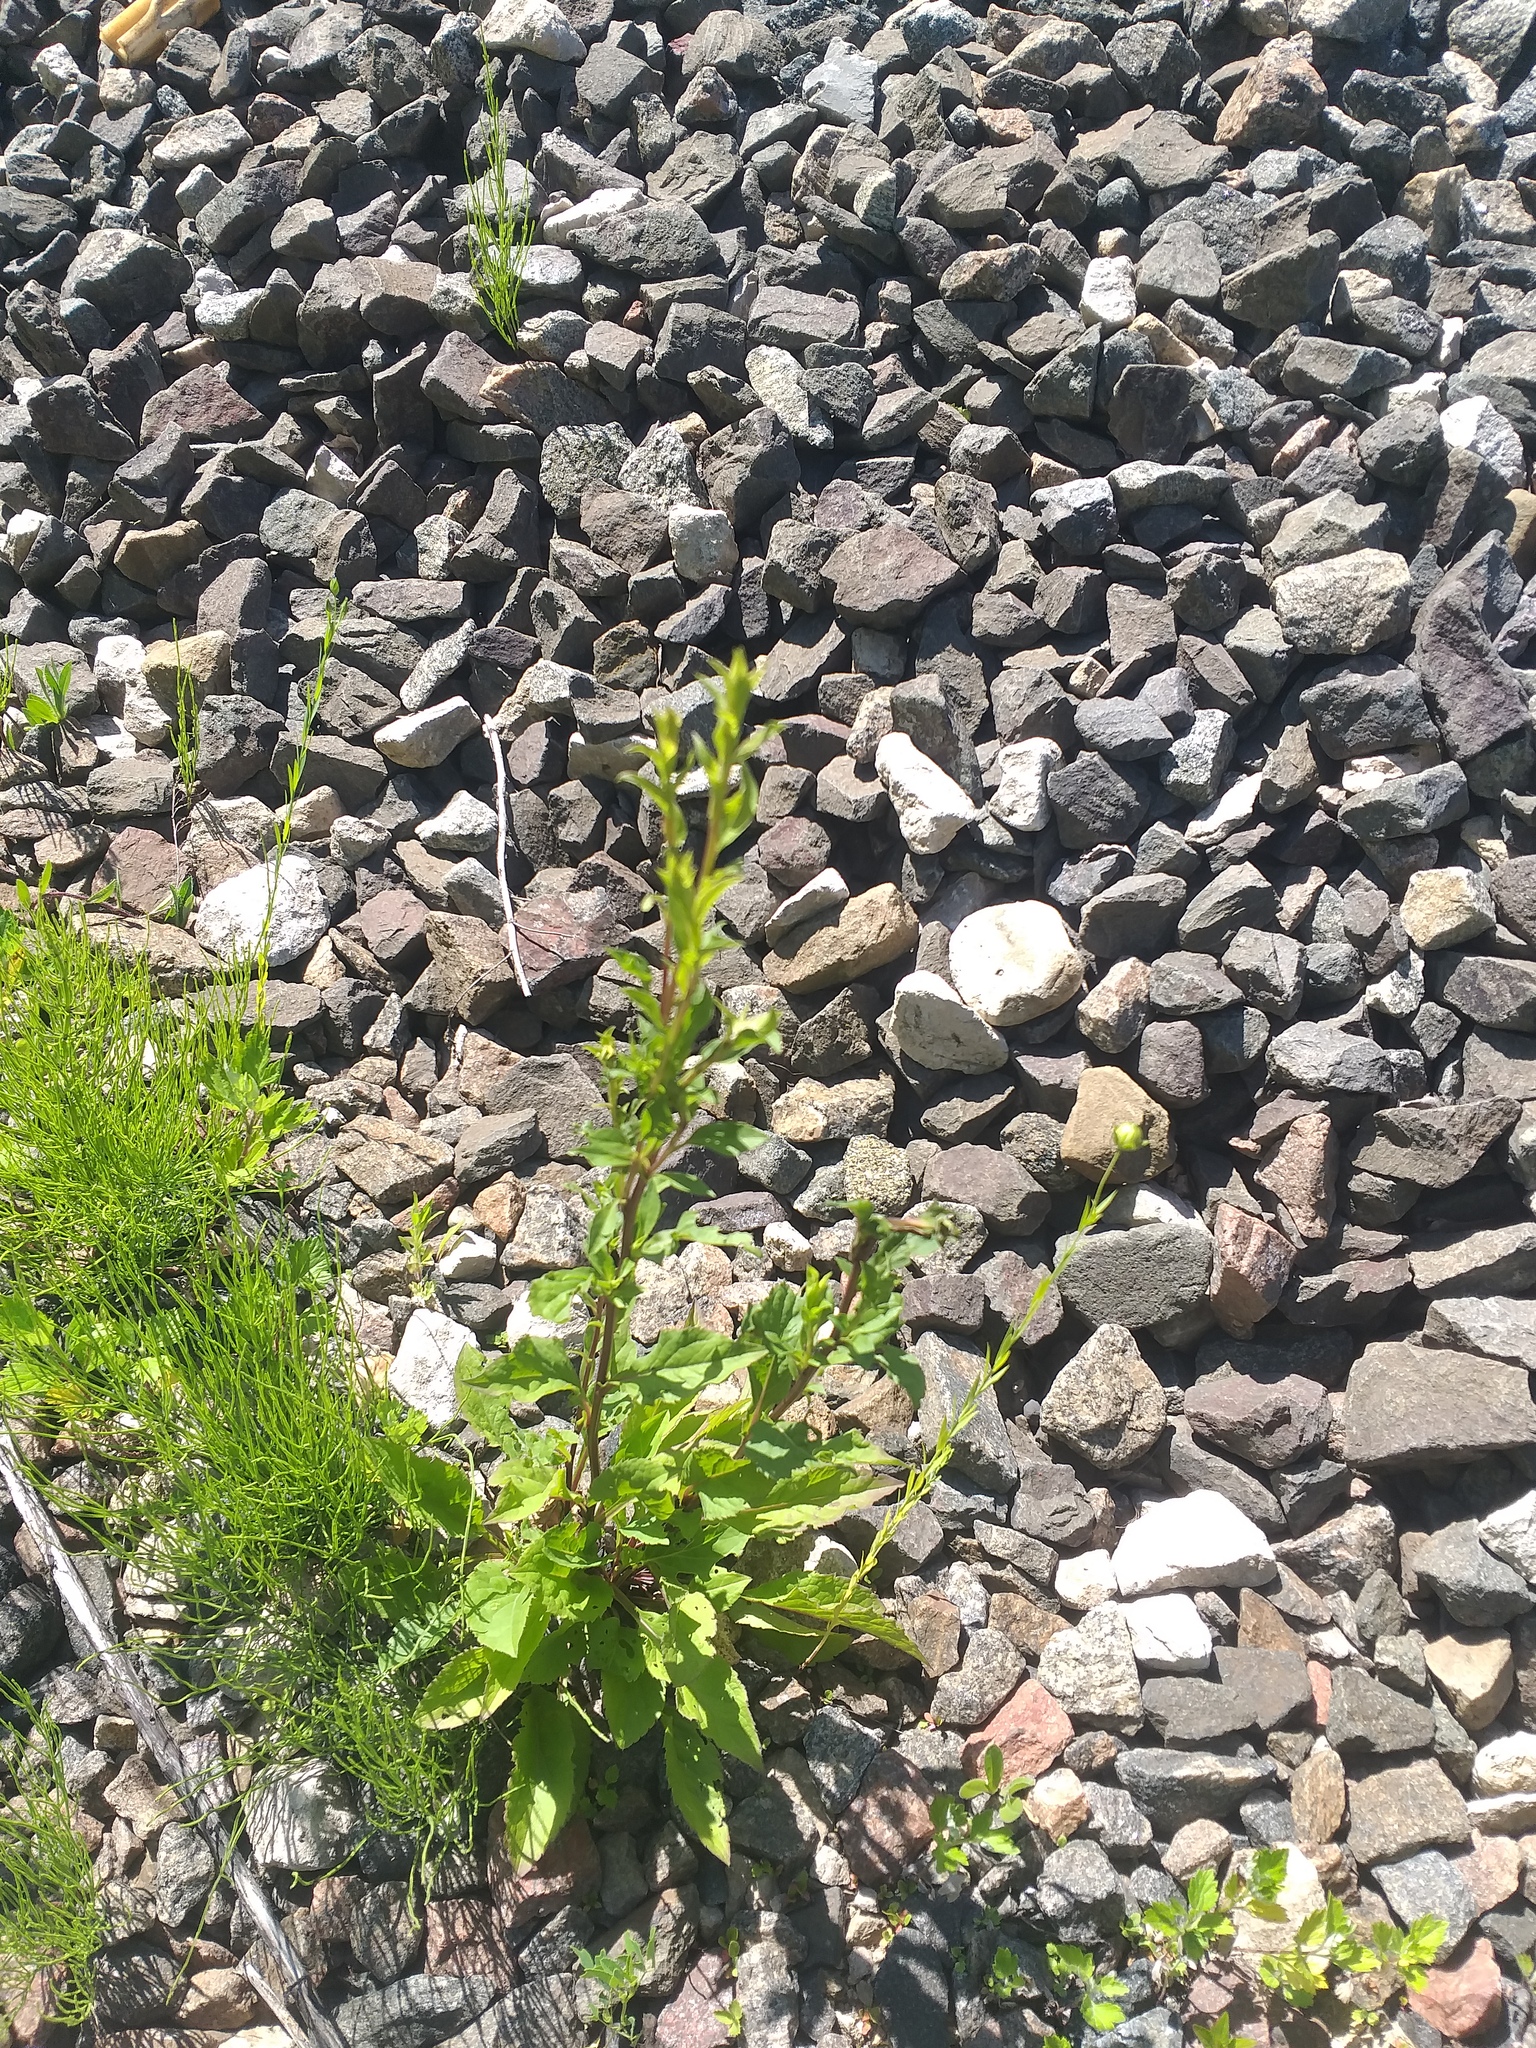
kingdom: Plantae
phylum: Tracheophyta
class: Magnoliopsida
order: Asterales
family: Asteraceae
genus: Solidago
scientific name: Solidago virgaurea
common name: Goldenrod
